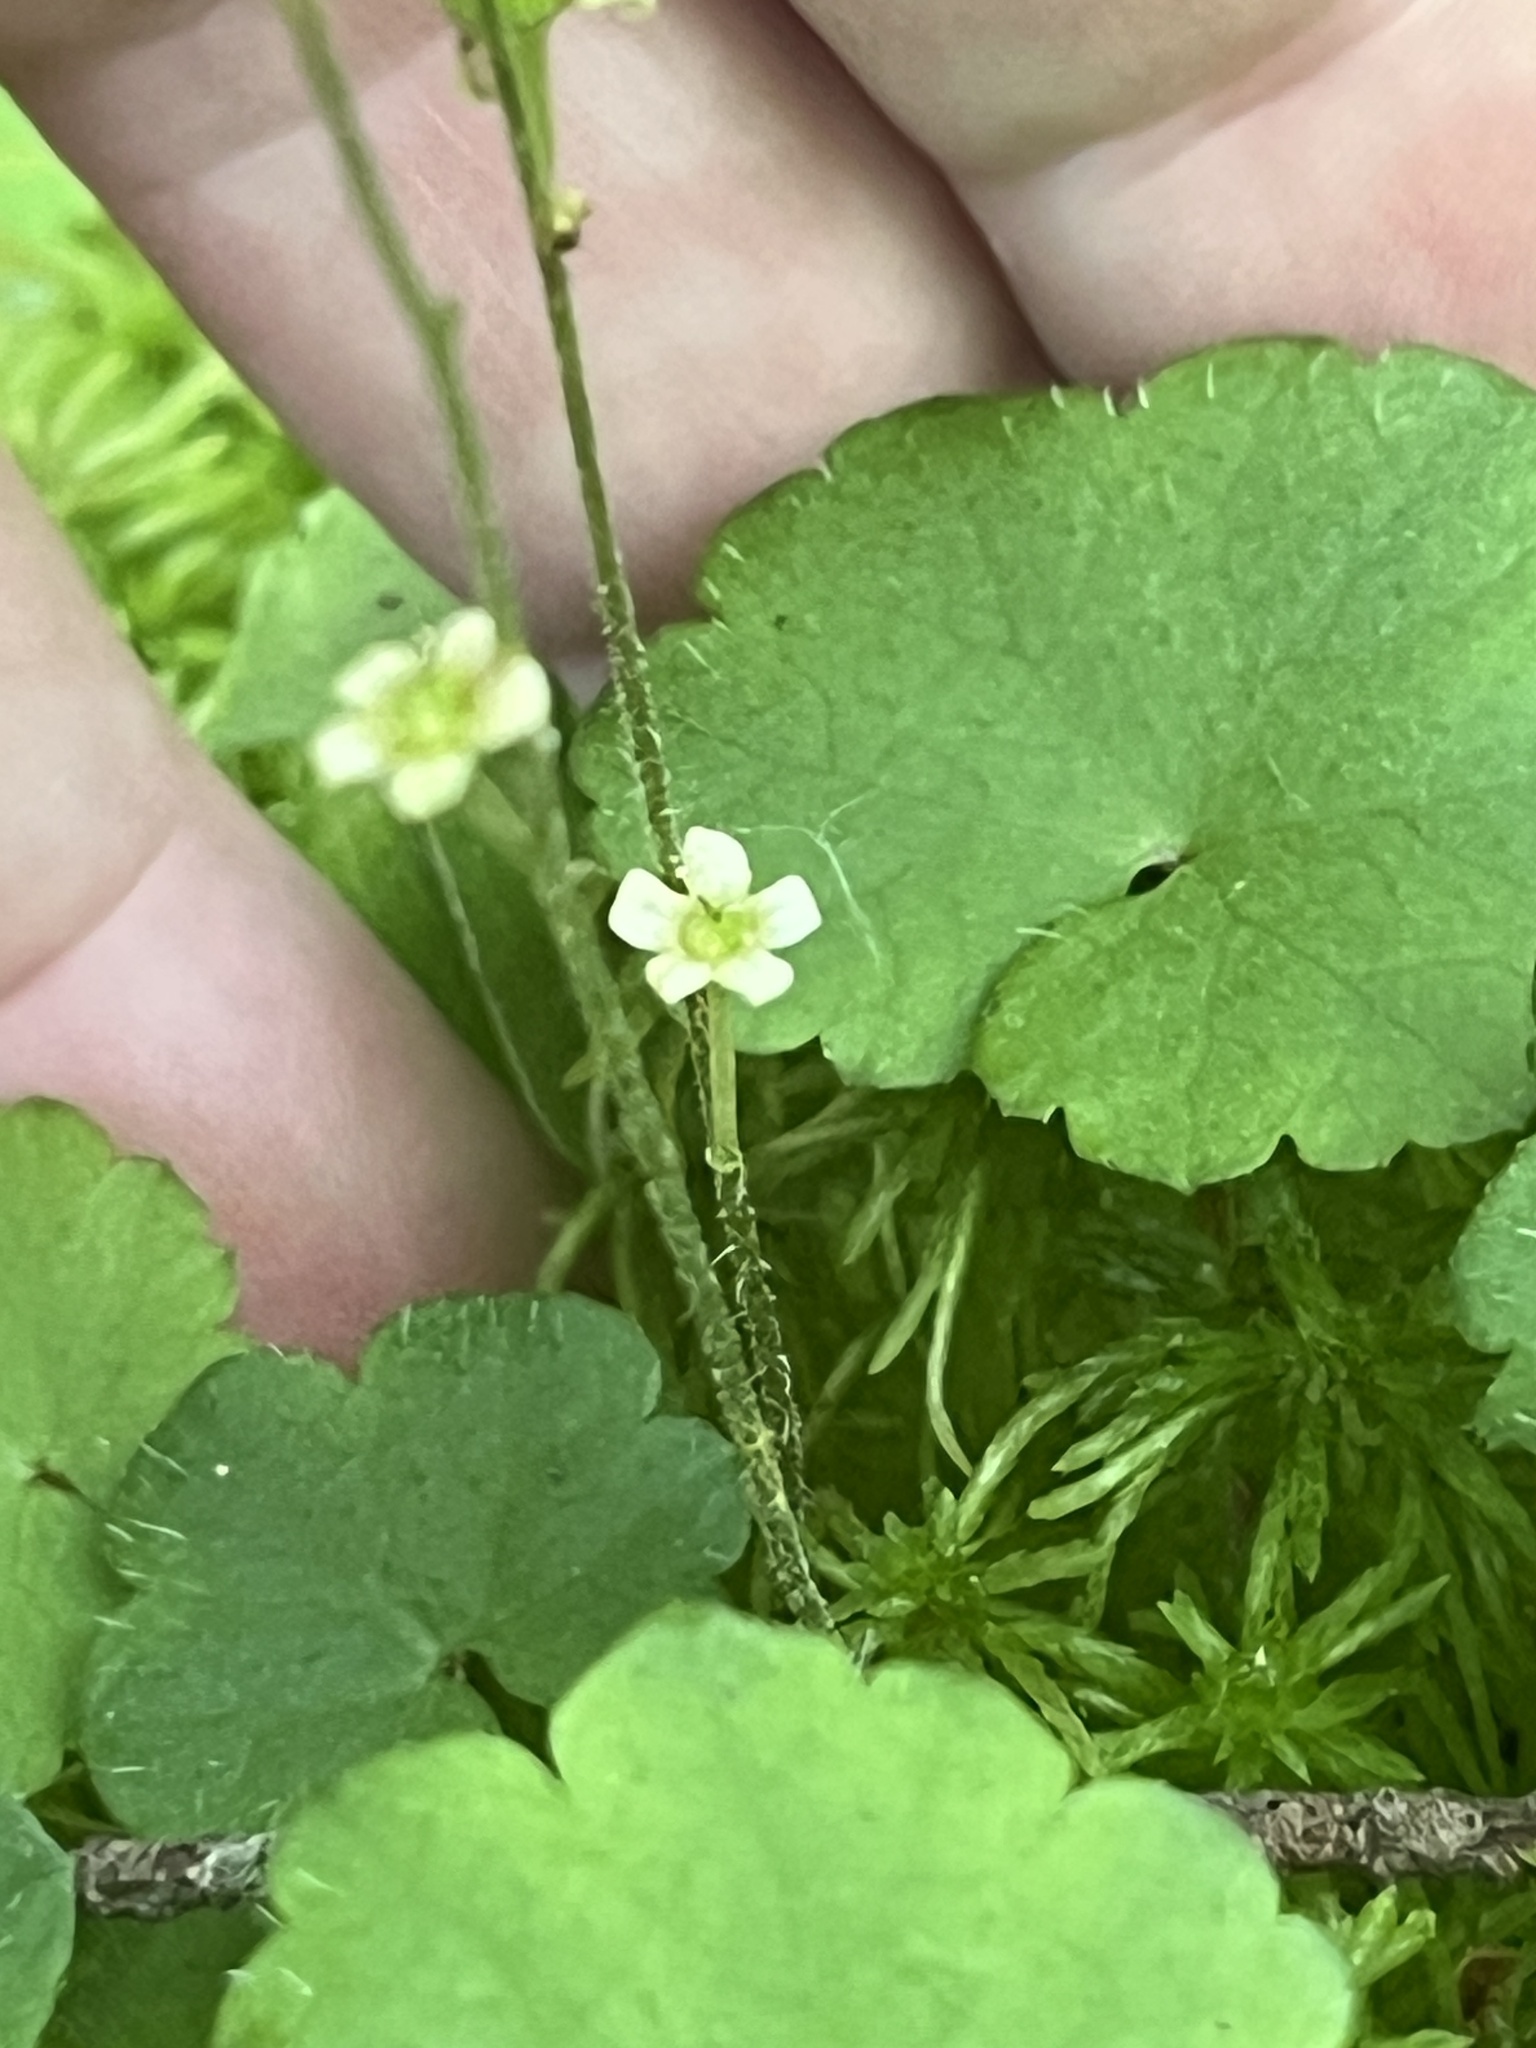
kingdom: Plantae
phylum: Tracheophyta
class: Magnoliopsida
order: Saxifragales
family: Saxifragaceae
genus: Mitella
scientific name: Mitella nuda
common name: Bare-stemmed bishop's-cap
